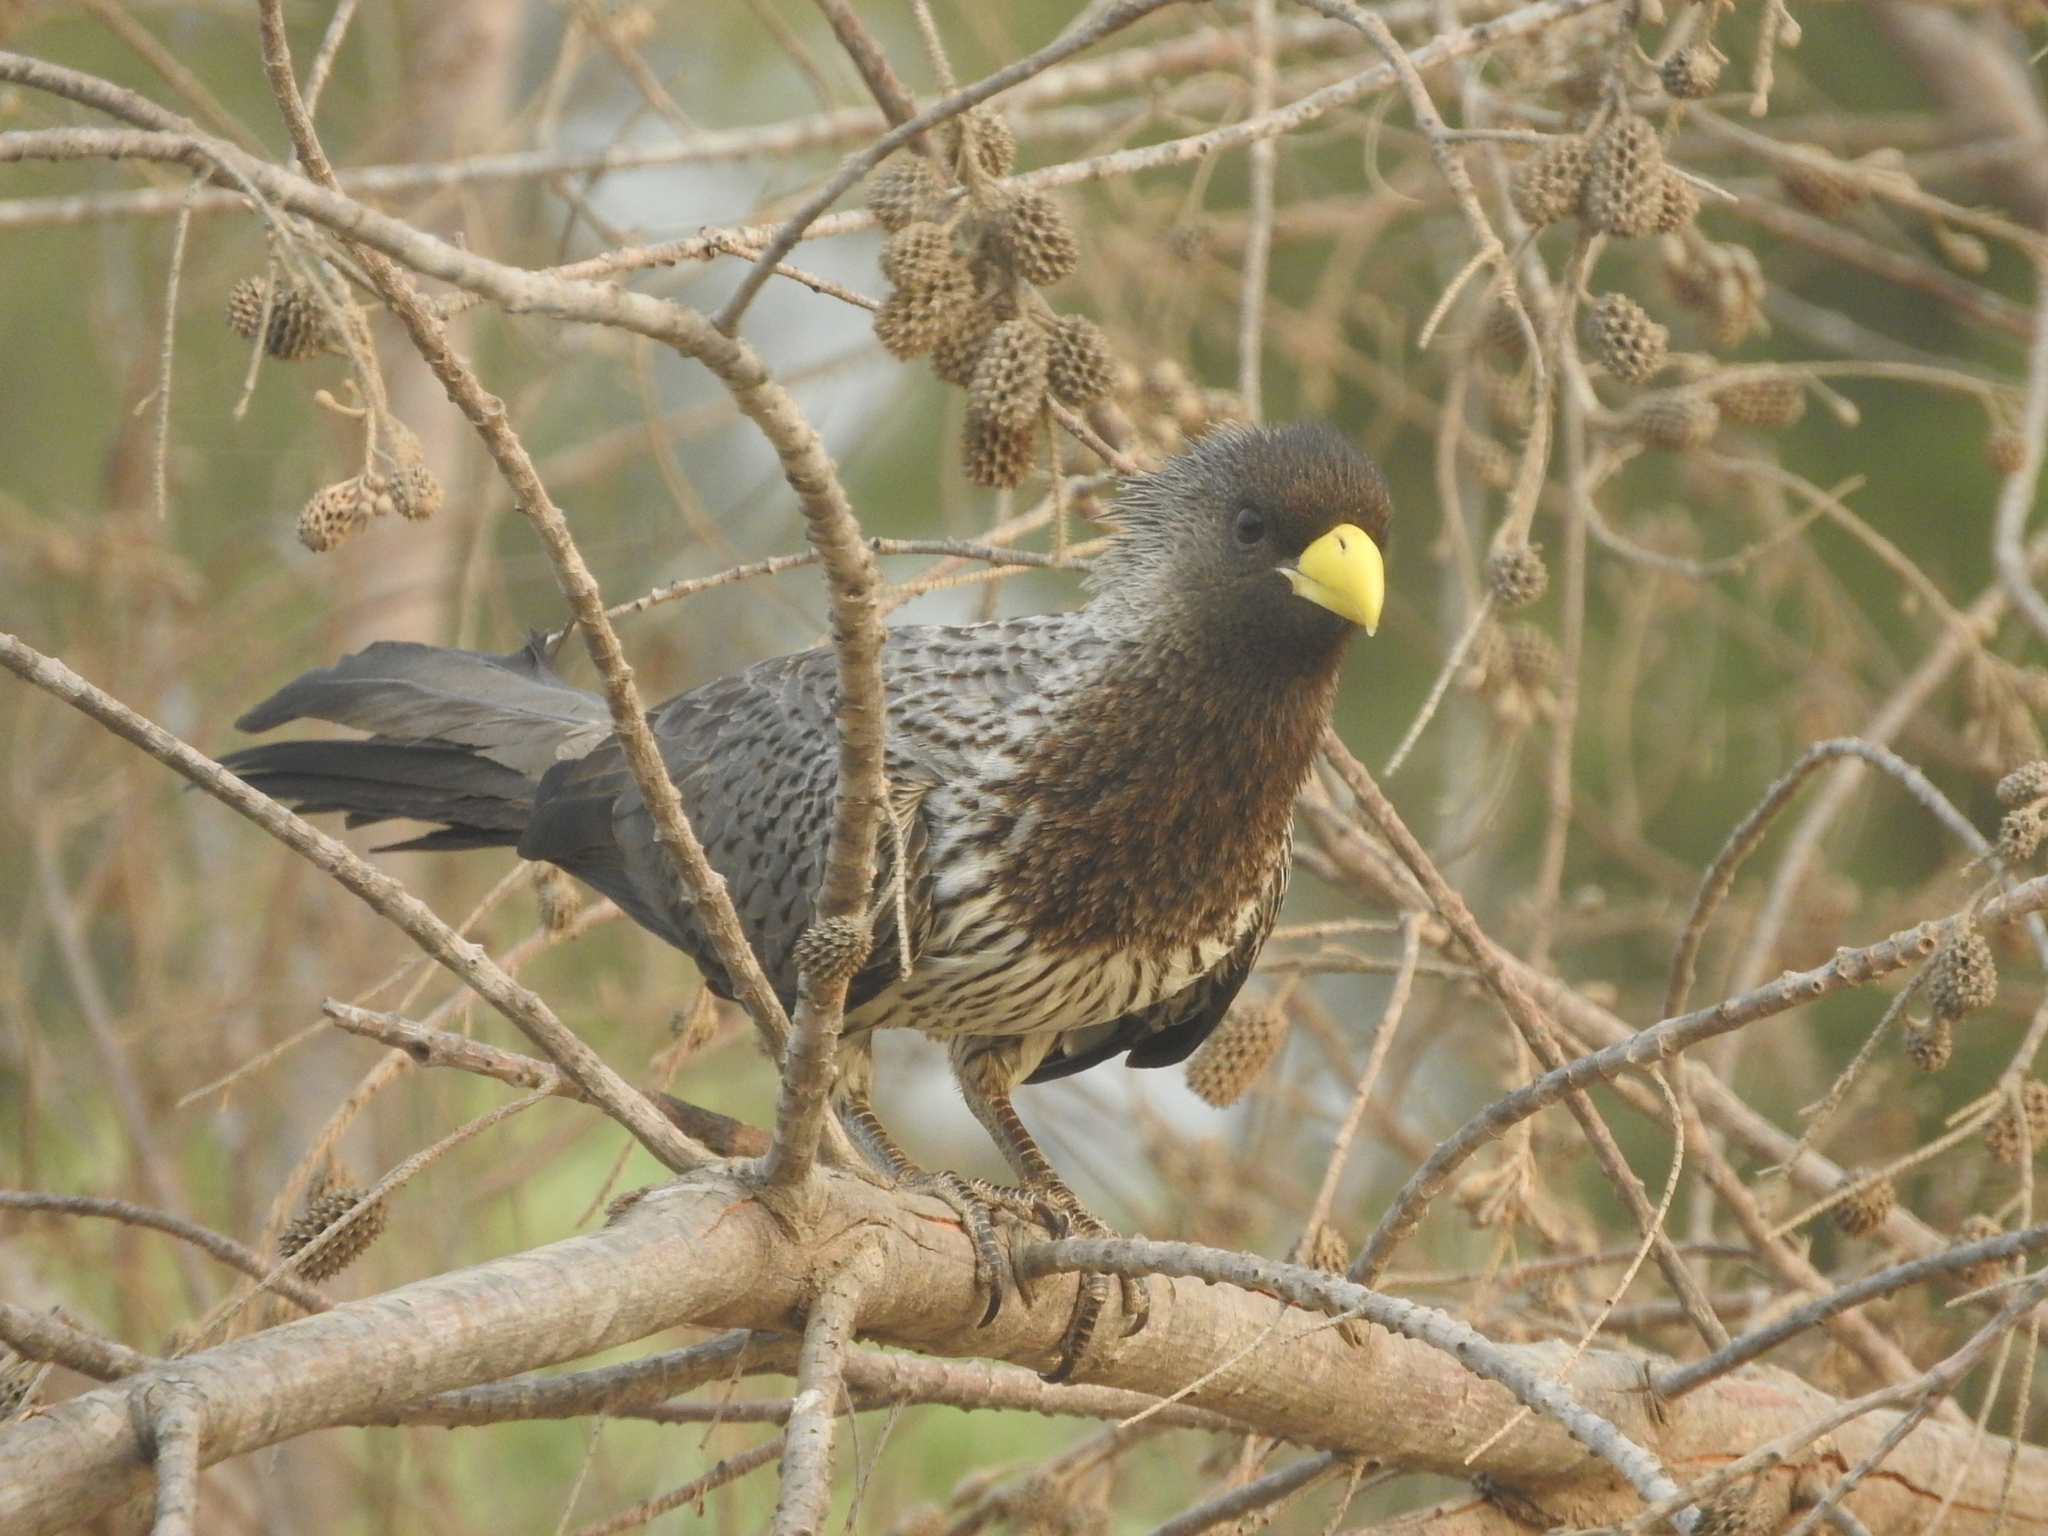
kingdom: Animalia
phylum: Chordata
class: Aves
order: Musophagiformes
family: Musophagidae
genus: Crinifer
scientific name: Crinifer piscator
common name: Western plantain-eater
